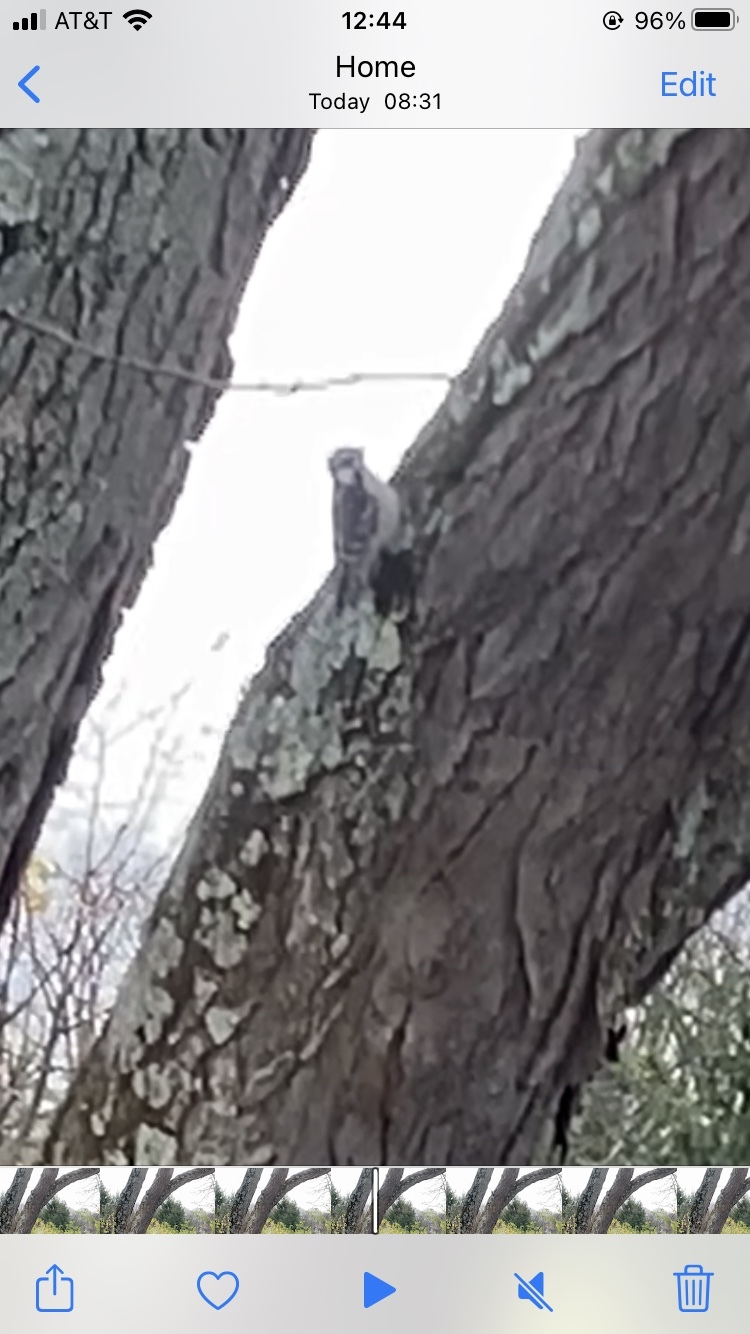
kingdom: Animalia
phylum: Chordata
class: Aves
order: Piciformes
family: Picidae
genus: Dryobates
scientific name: Dryobates pubescens
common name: Downy woodpecker
